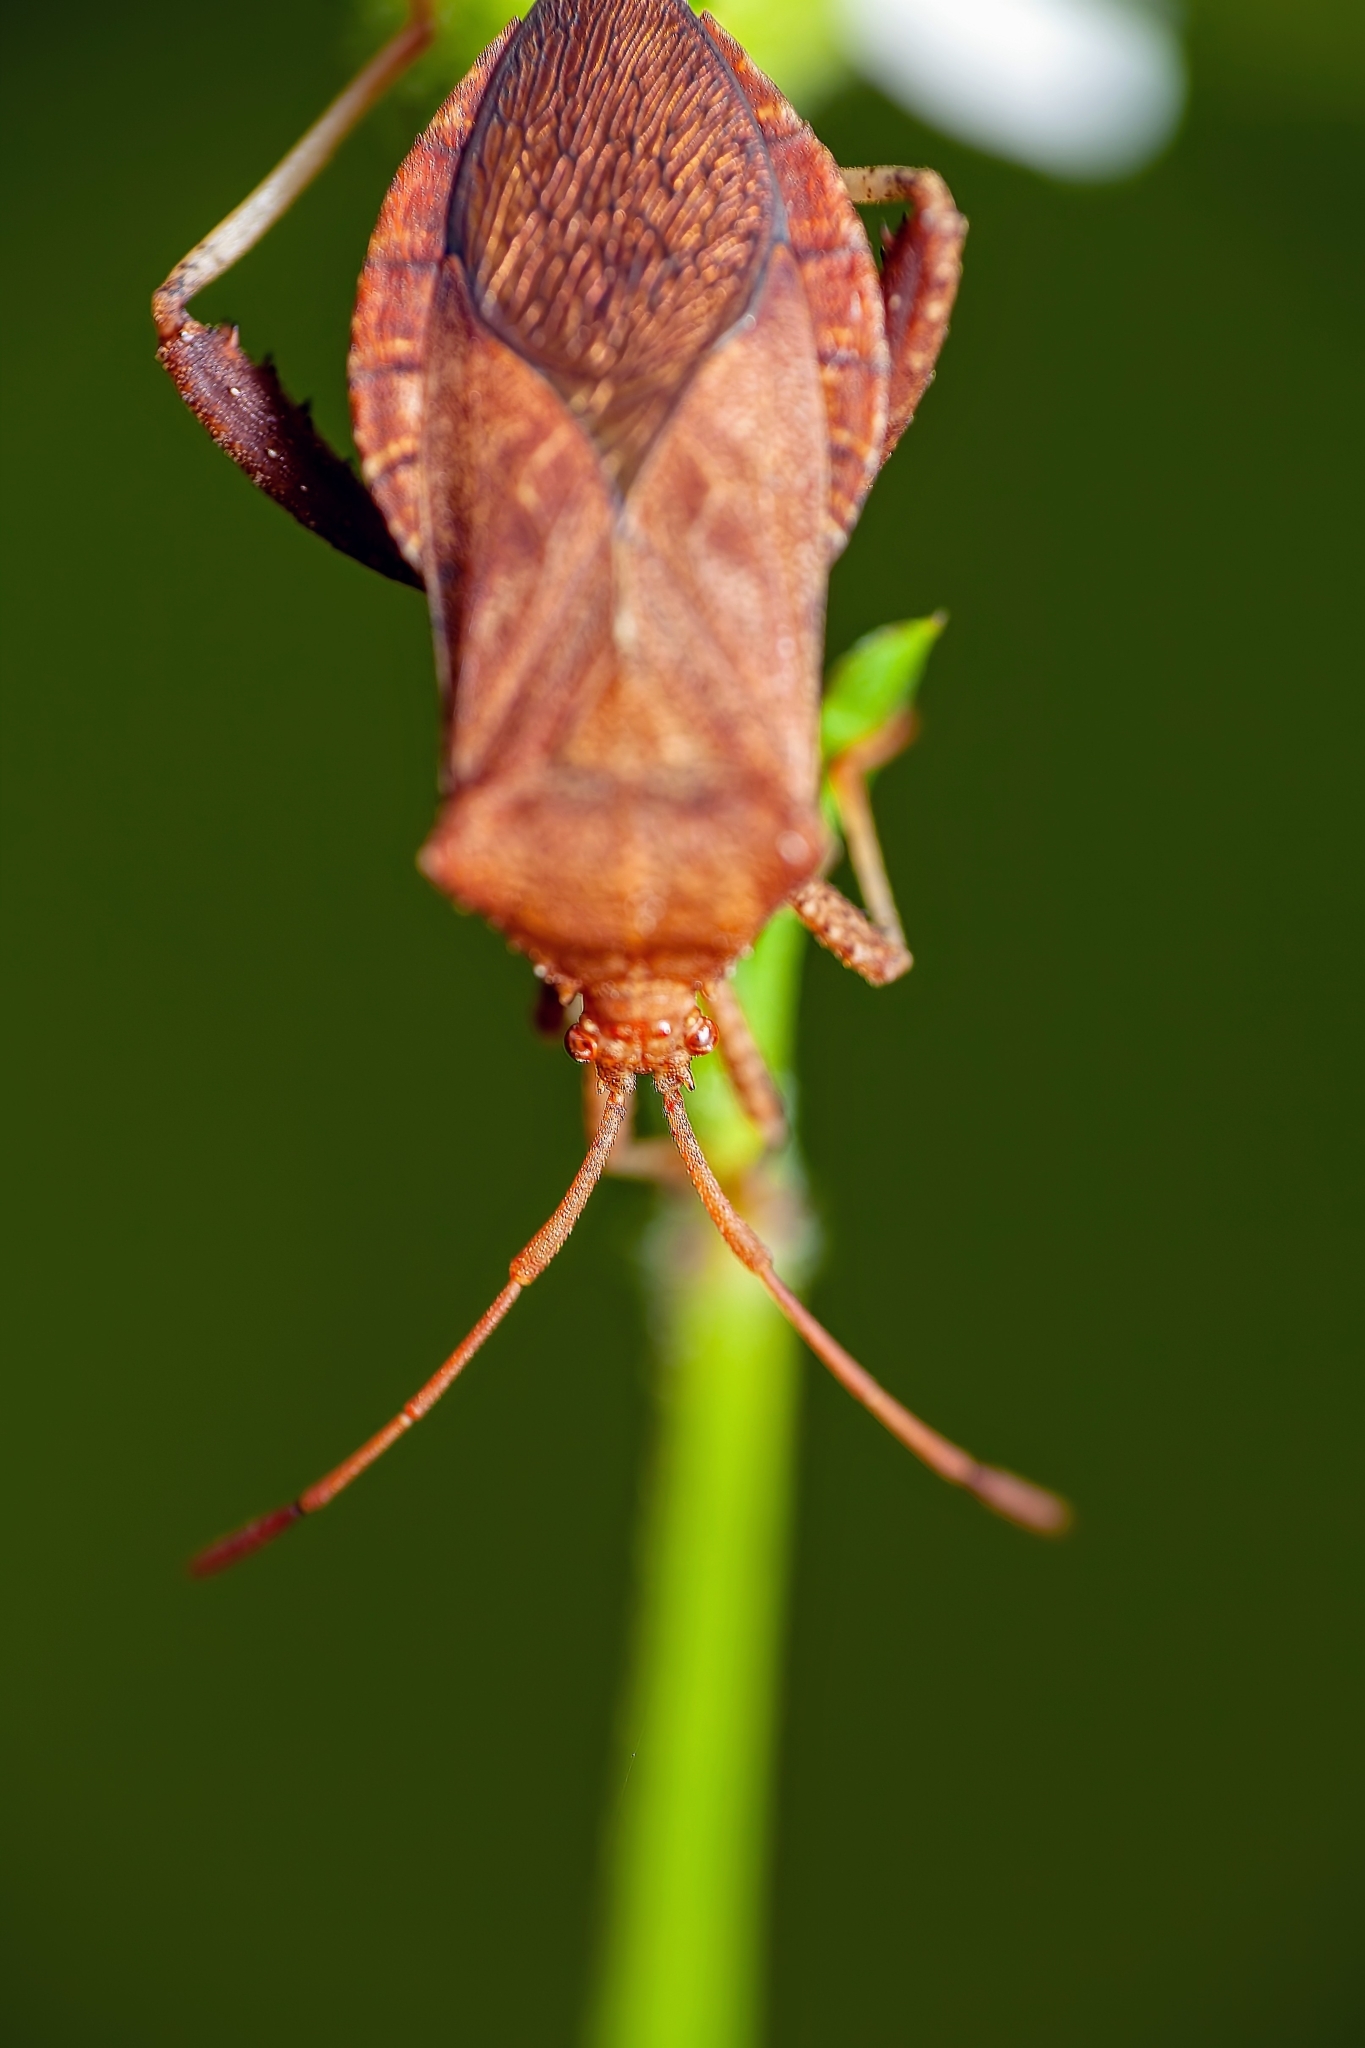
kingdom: Animalia
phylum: Arthropoda
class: Insecta
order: Hemiptera
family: Coreidae
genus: Euthochtha
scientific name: Euthochtha galeator
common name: Helmeted squash bug
